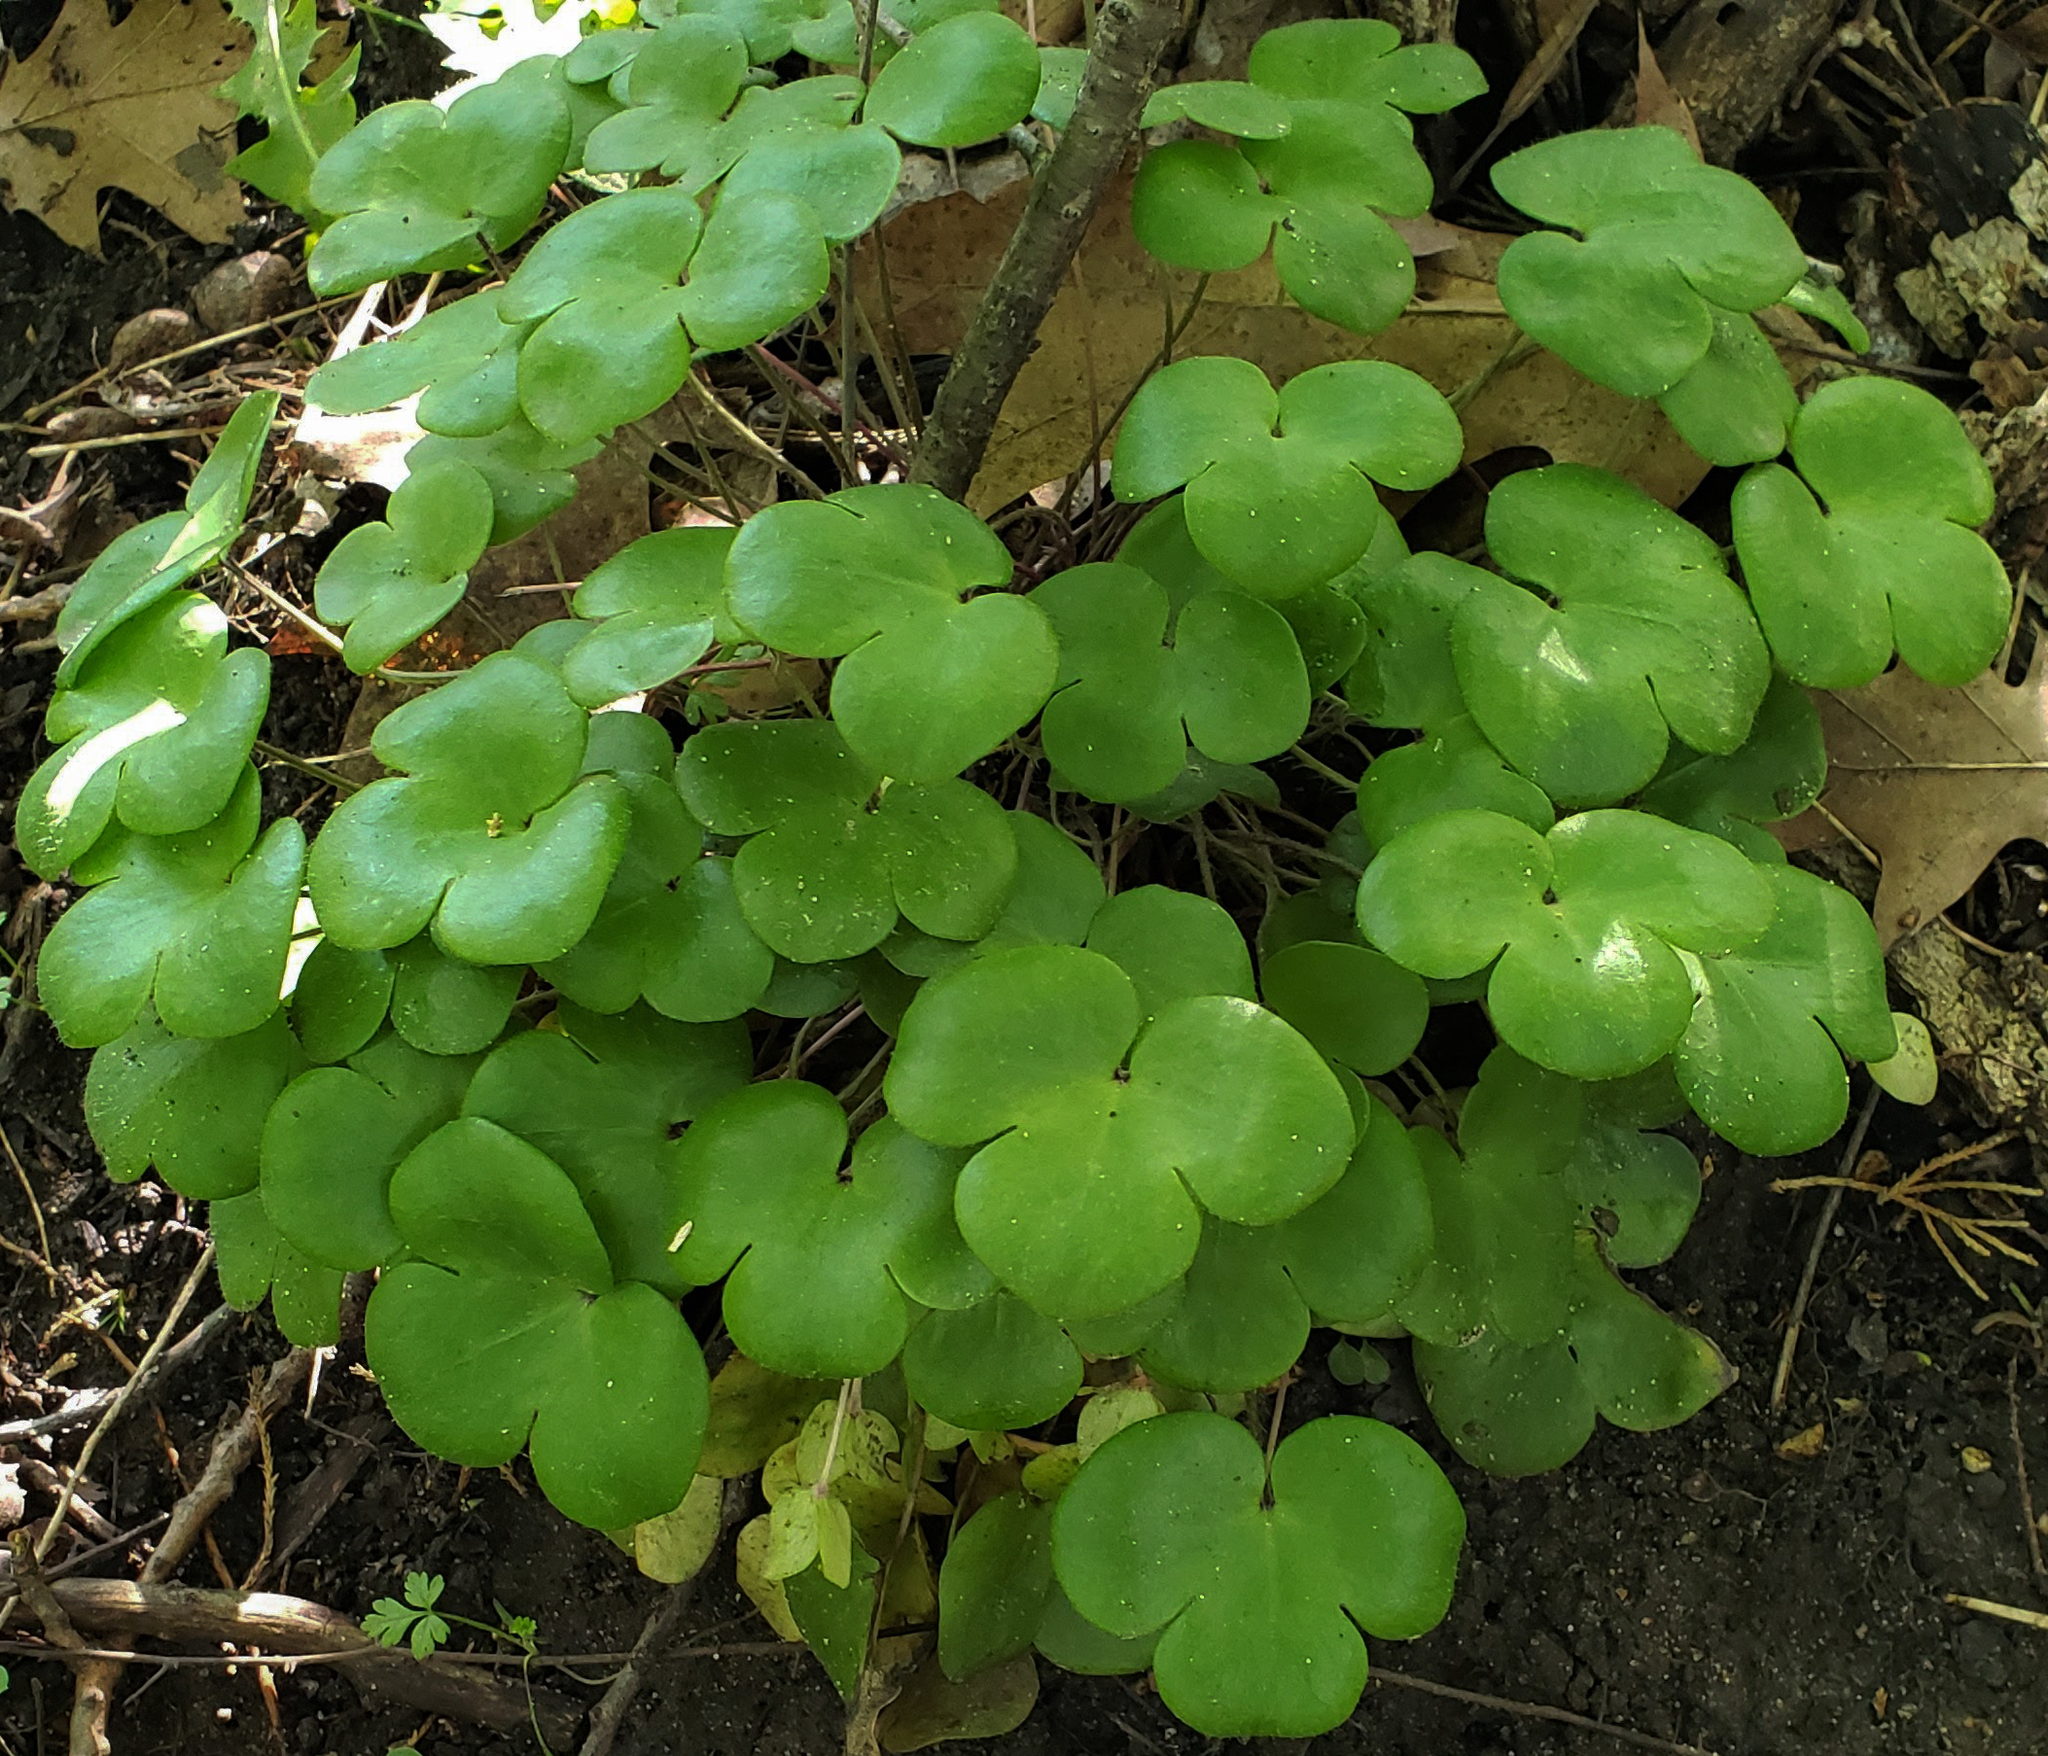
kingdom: Plantae
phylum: Tracheophyta
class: Magnoliopsida
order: Ranunculales
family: Ranunculaceae
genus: Hepatica
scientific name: Hepatica americana
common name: American hepatica
